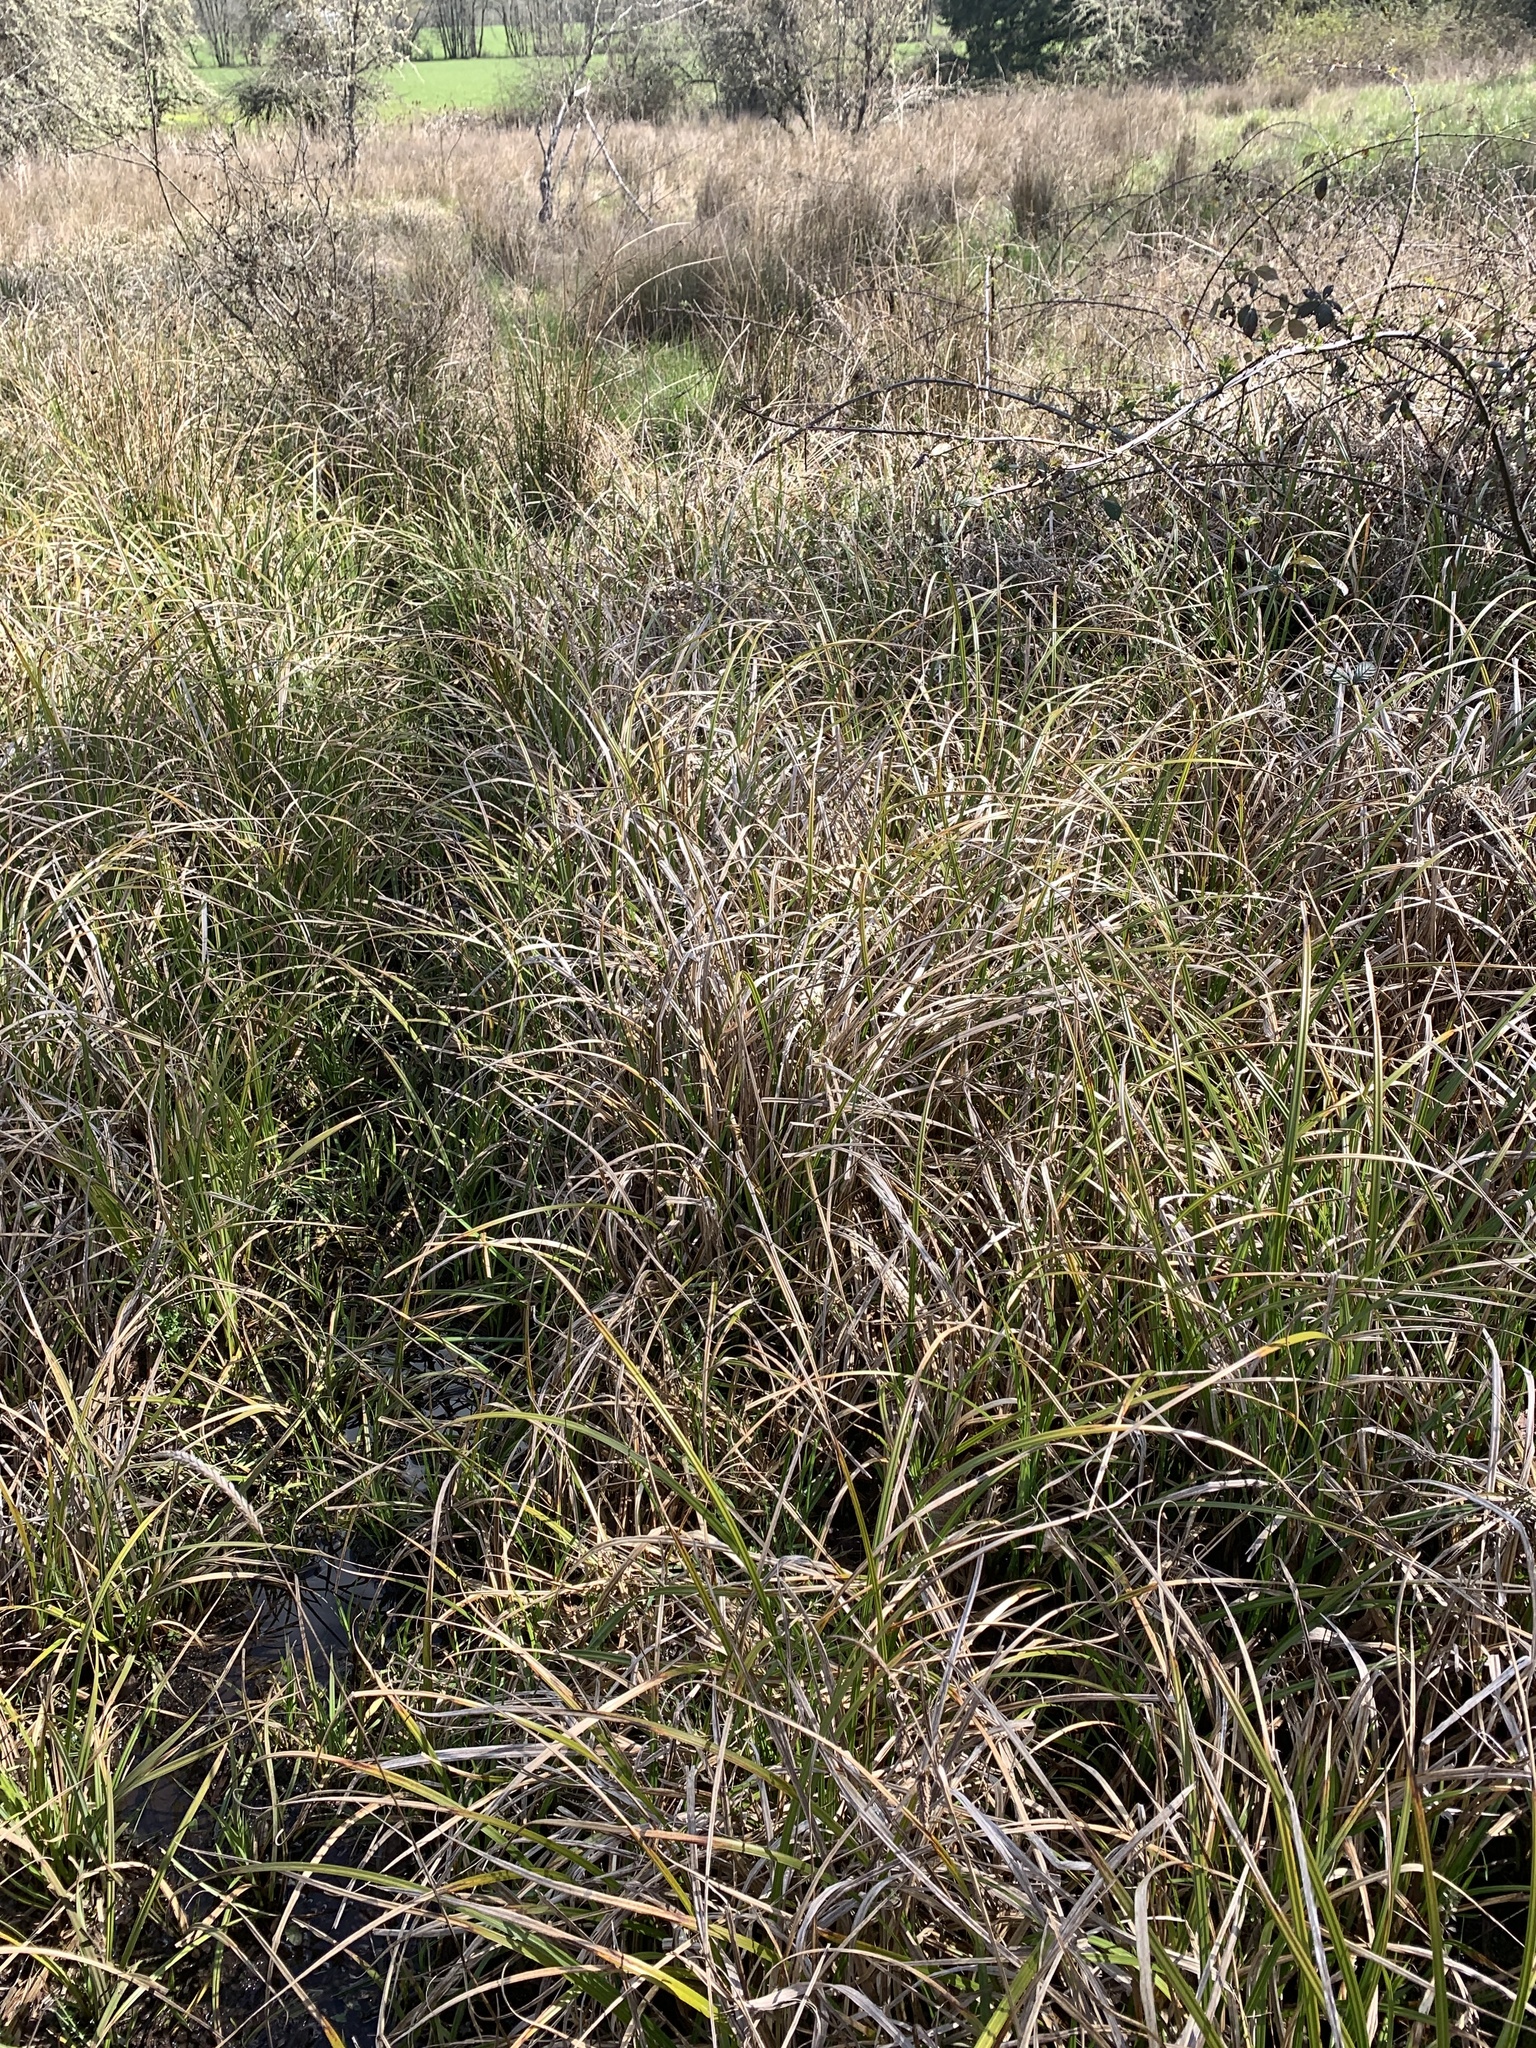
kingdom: Plantae
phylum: Tracheophyta
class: Liliopsida
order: Poales
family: Cyperaceae
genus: Carex
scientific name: Carex obnupta
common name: Slough sedge
